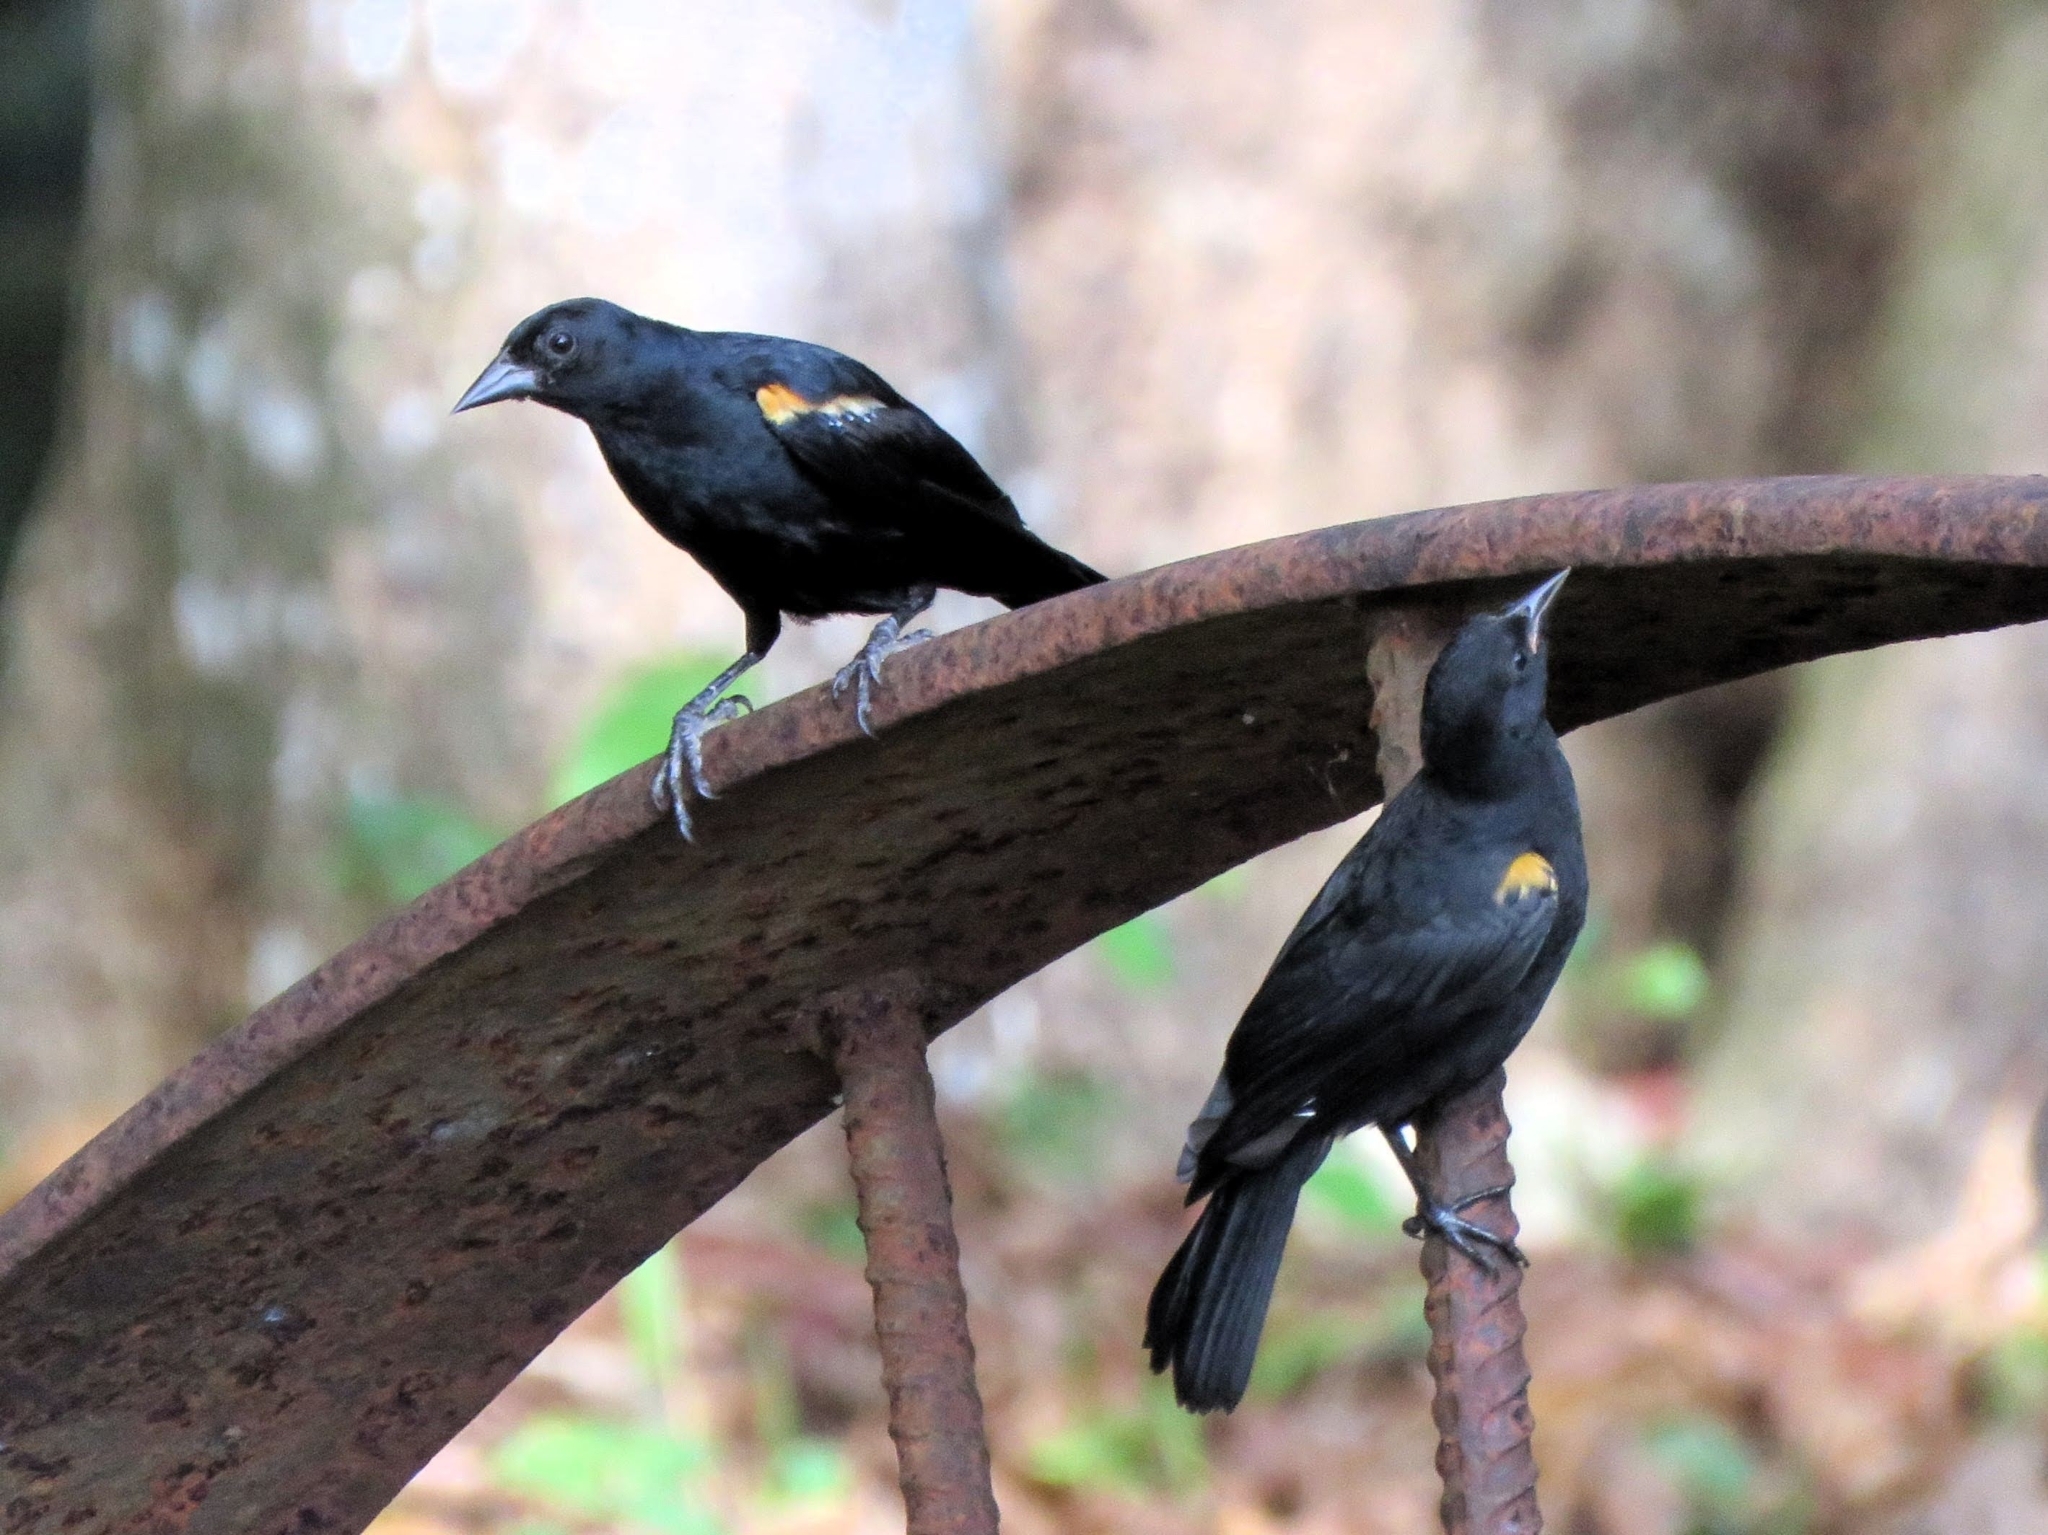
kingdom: Animalia
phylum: Chordata
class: Aves
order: Passeriformes
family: Icteridae
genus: Agelaius
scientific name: Agelaius humeralis
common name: Tawny-shouldered blackbird
